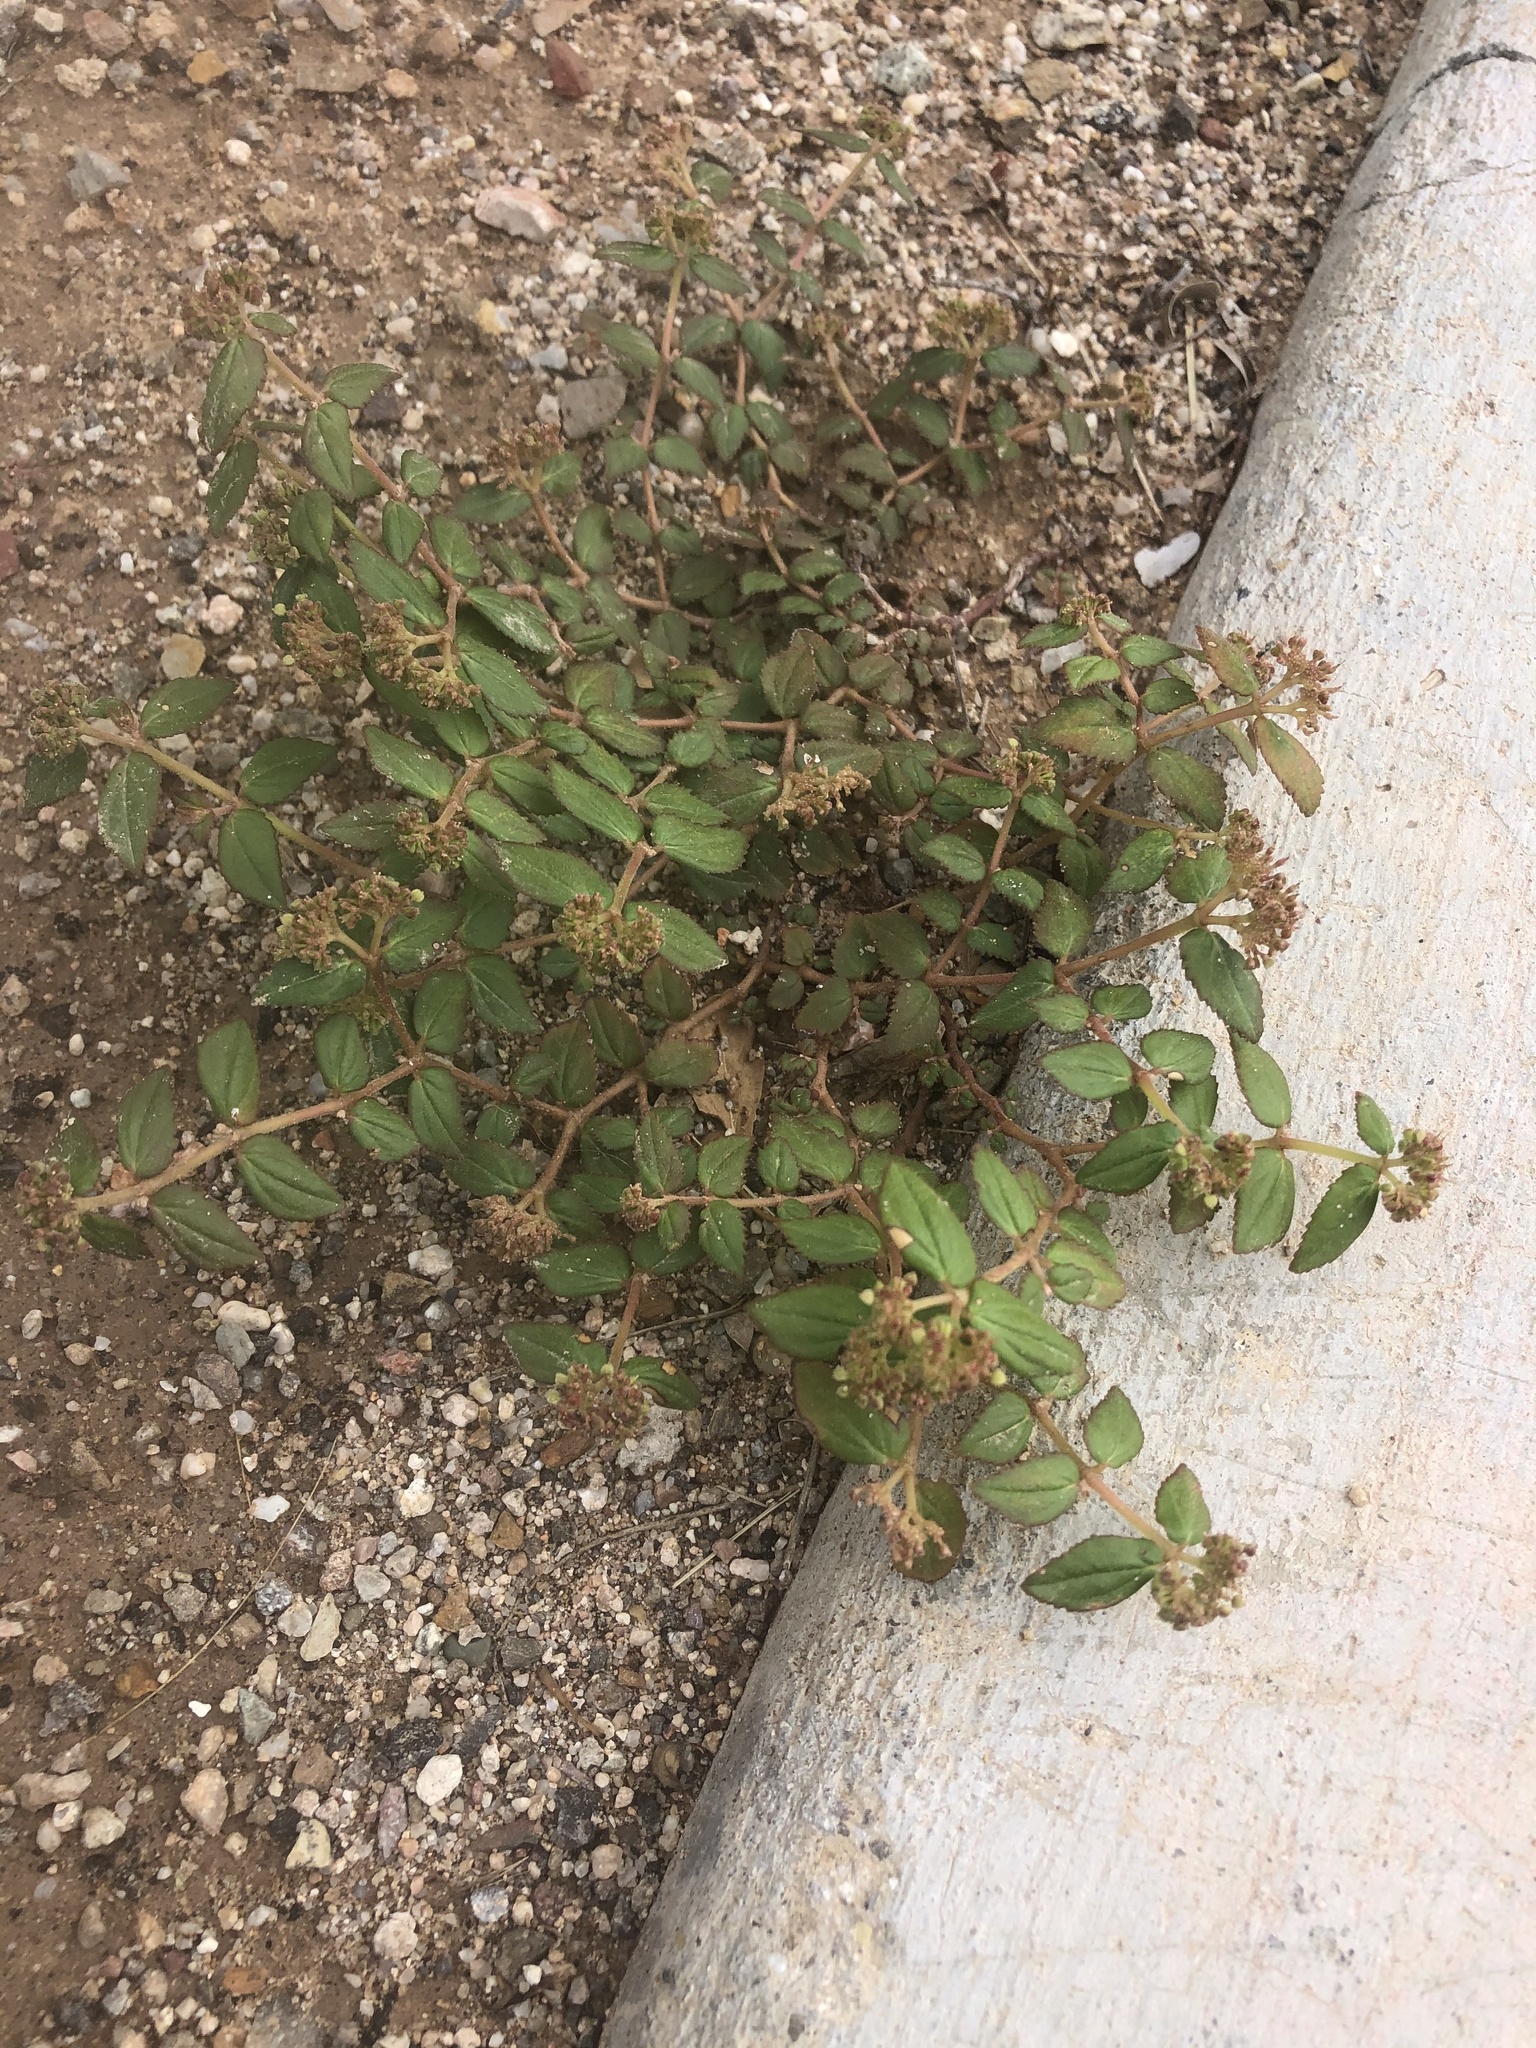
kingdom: Plantae
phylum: Tracheophyta
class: Magnoliopsida
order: Malpighiales
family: Euphorbiaceae
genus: Euphorbia
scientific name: Euphorbia ophthalmica
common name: Florida hammock sandmat
